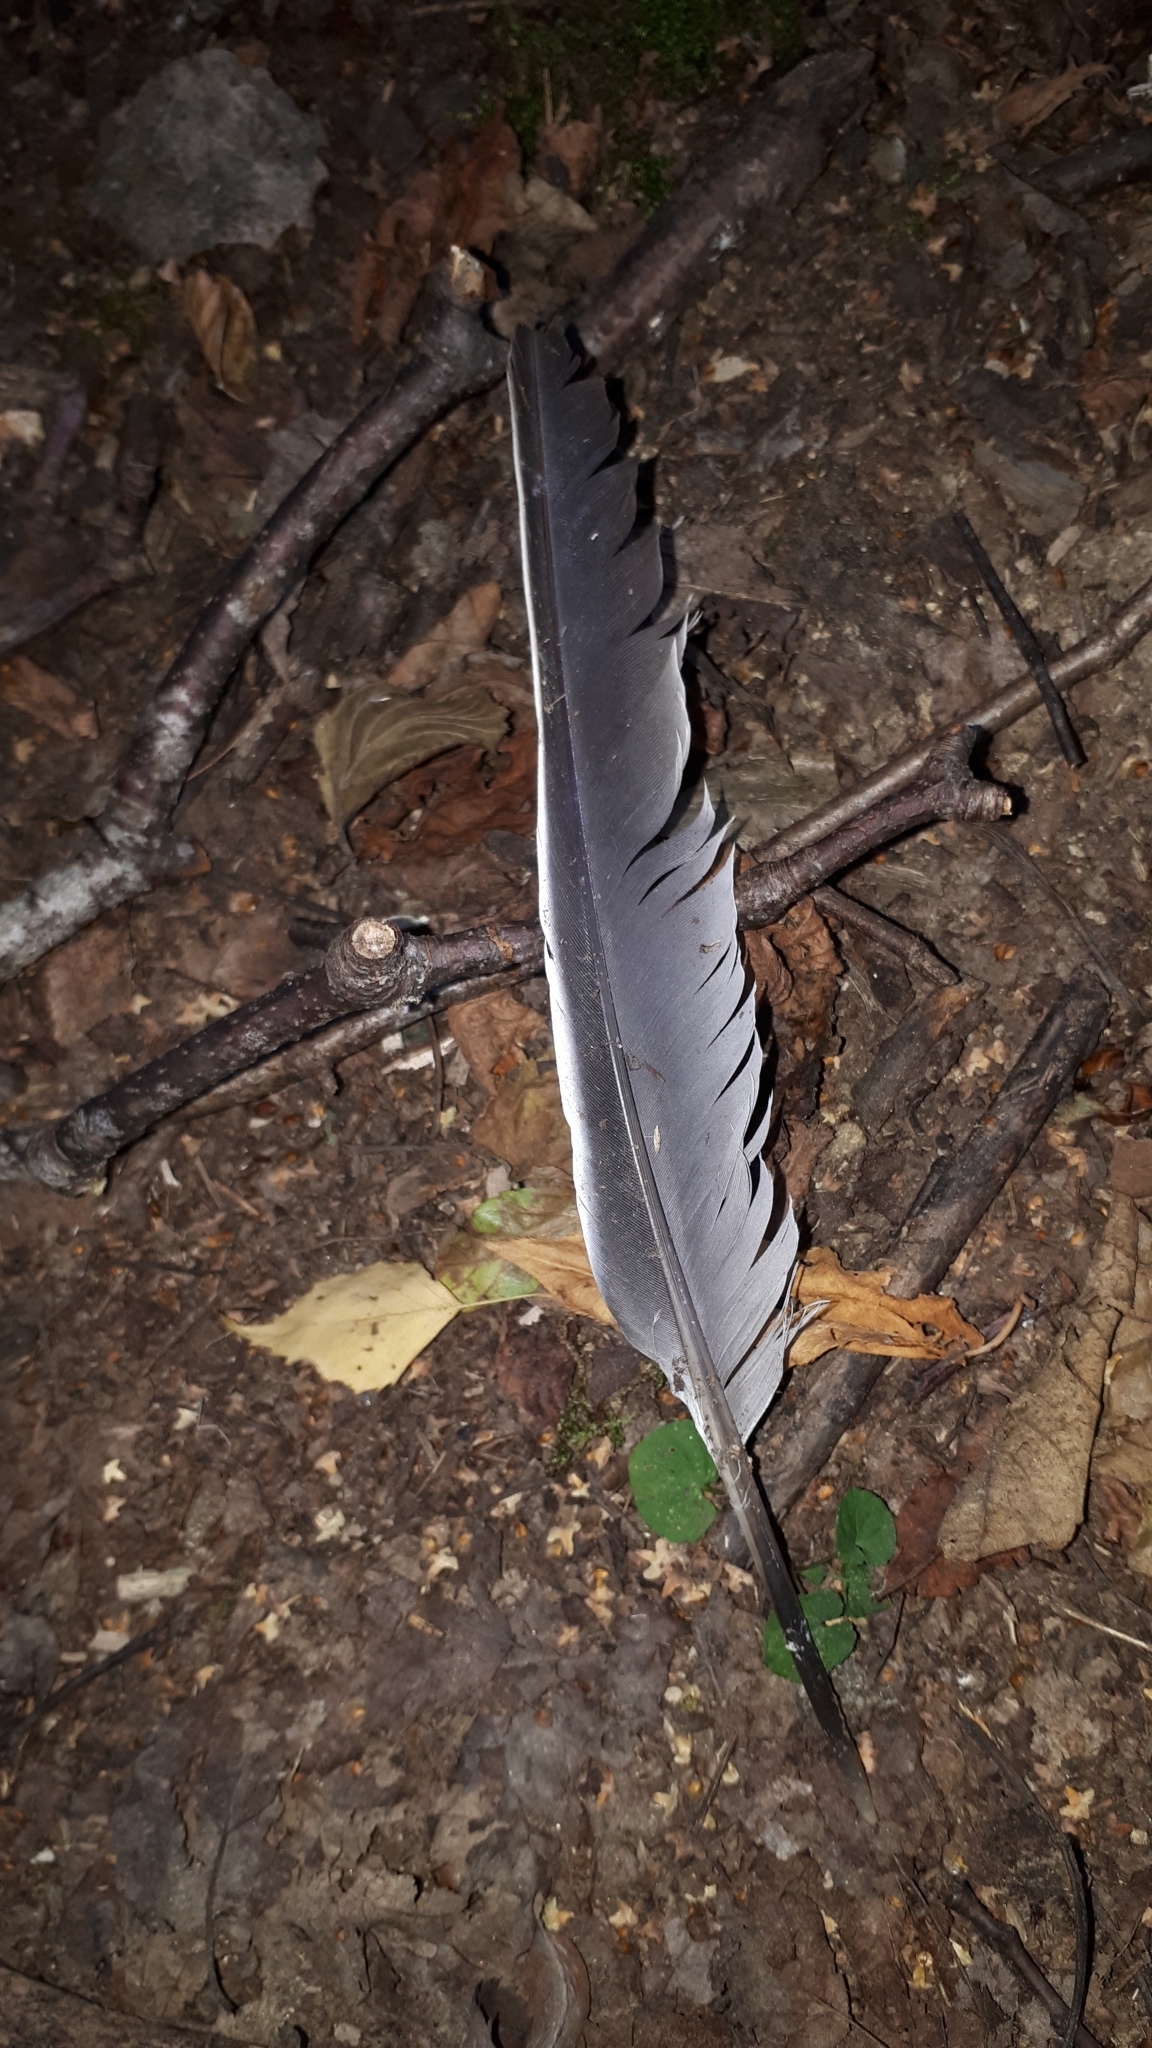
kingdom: Animalia
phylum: Chordata
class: Aves
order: Columbiformes
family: Columbidae
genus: Columba
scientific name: Columba palumbus
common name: Common wood pigeon
